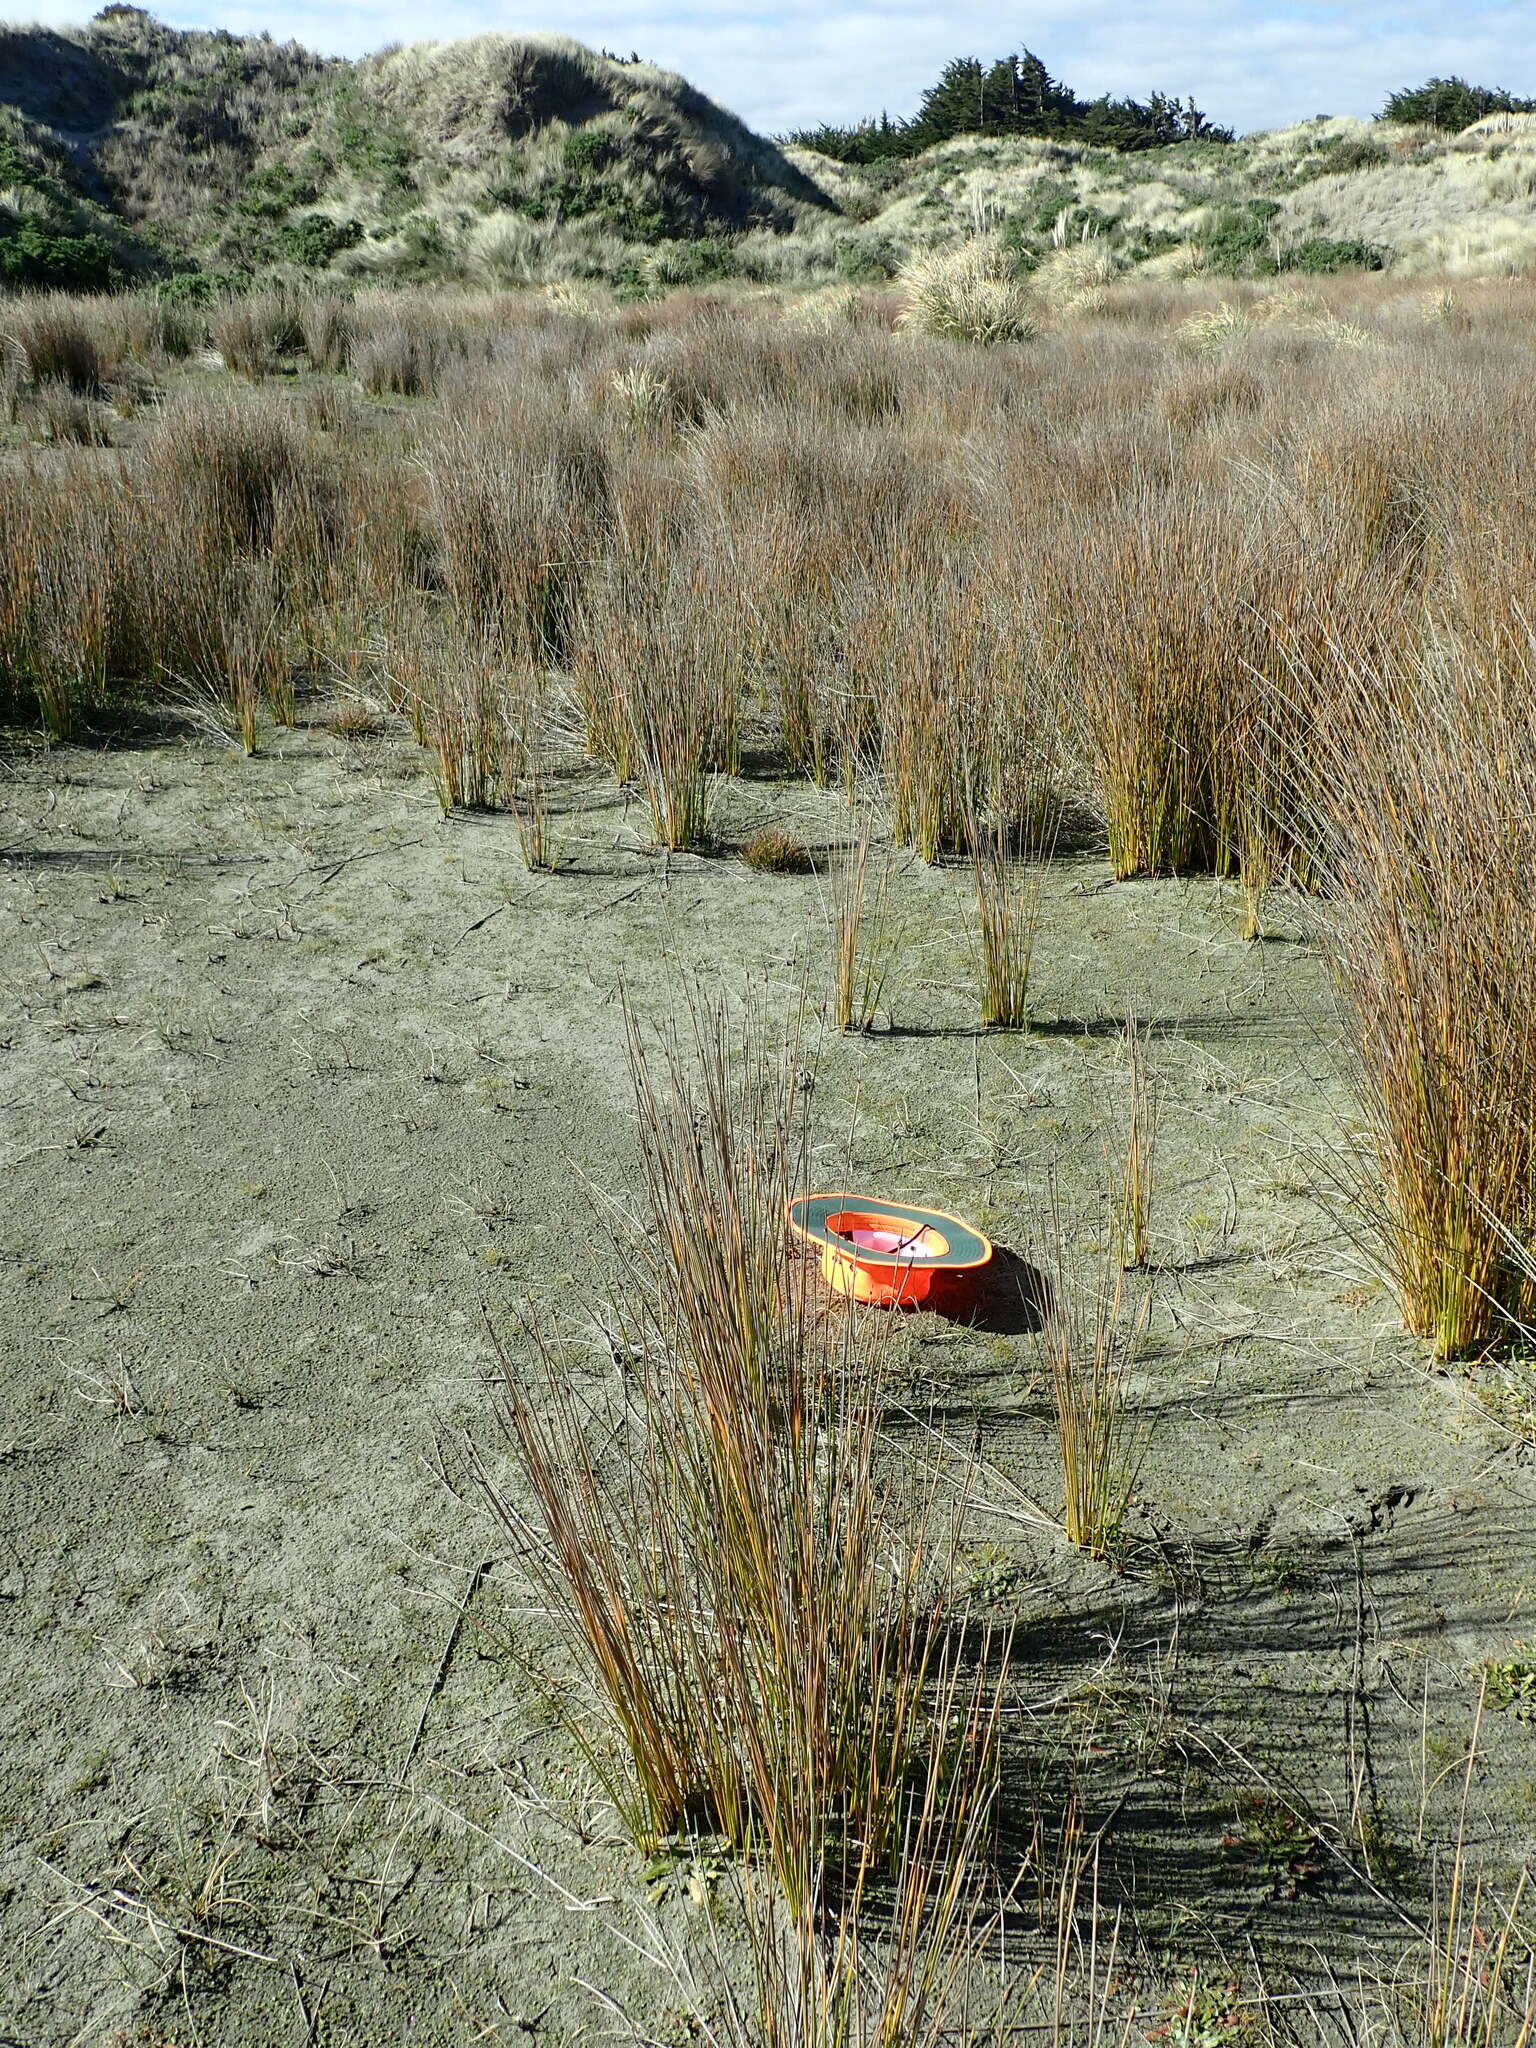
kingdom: Plantae
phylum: Tracheophyta
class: Magnoliopsida
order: Asterales
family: Goodeniaceae
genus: Goodenia
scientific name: Goodenia heenanii
